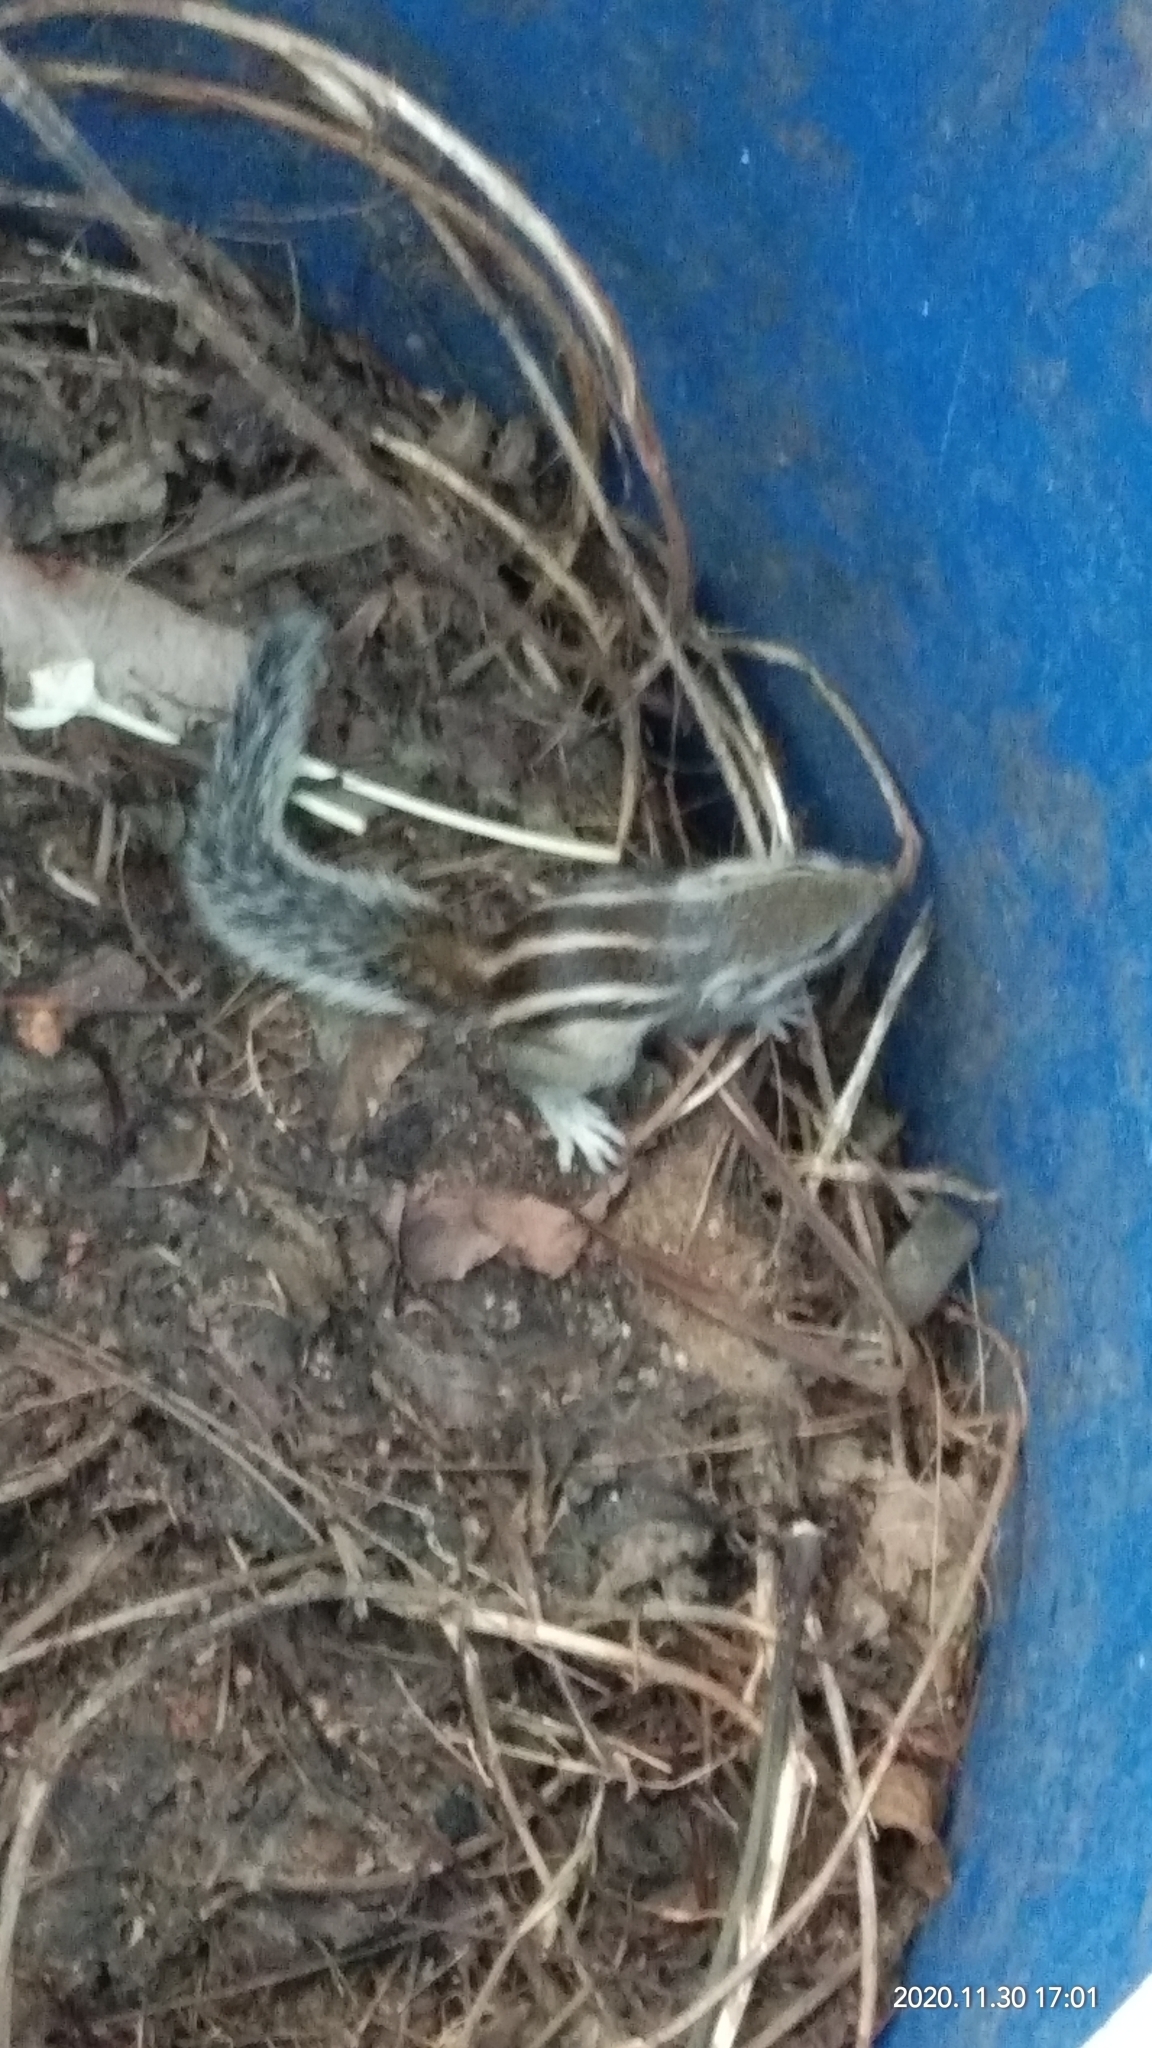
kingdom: Animalia
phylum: Chordata
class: Mammalia
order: Rodentia
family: Sciuridae
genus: Funambulus
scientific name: Funambulus pennantii
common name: Northern palm squirrel
